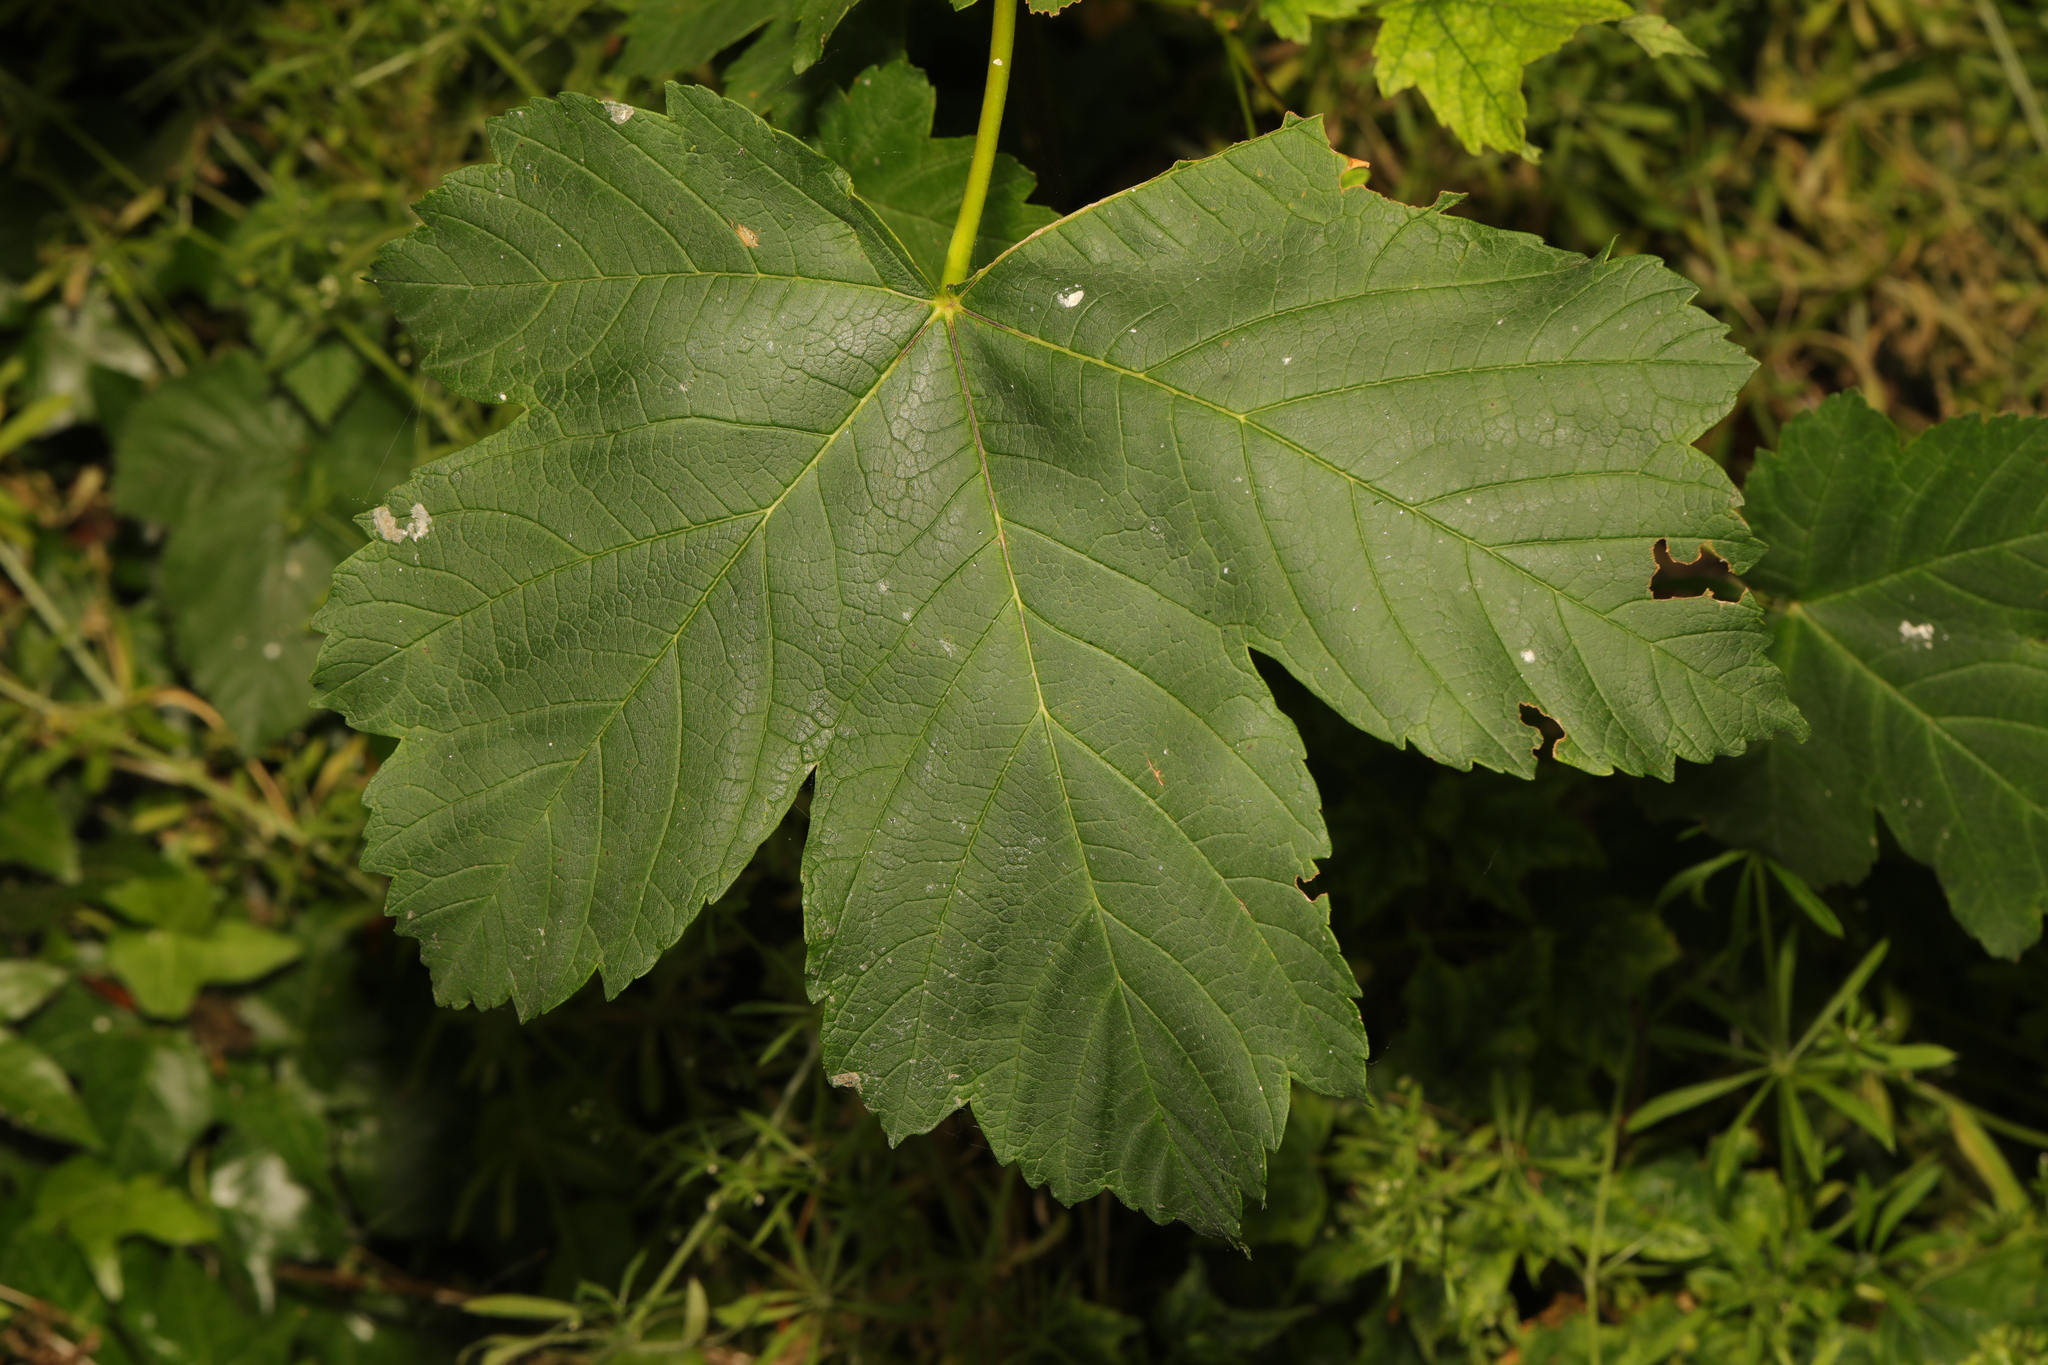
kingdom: Plantae
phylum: Tracheophyta
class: Magnoliopsida
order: Sapindales
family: Sapindaceae
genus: Acer
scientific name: Acer pseudoplatanus
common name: Sycamore
